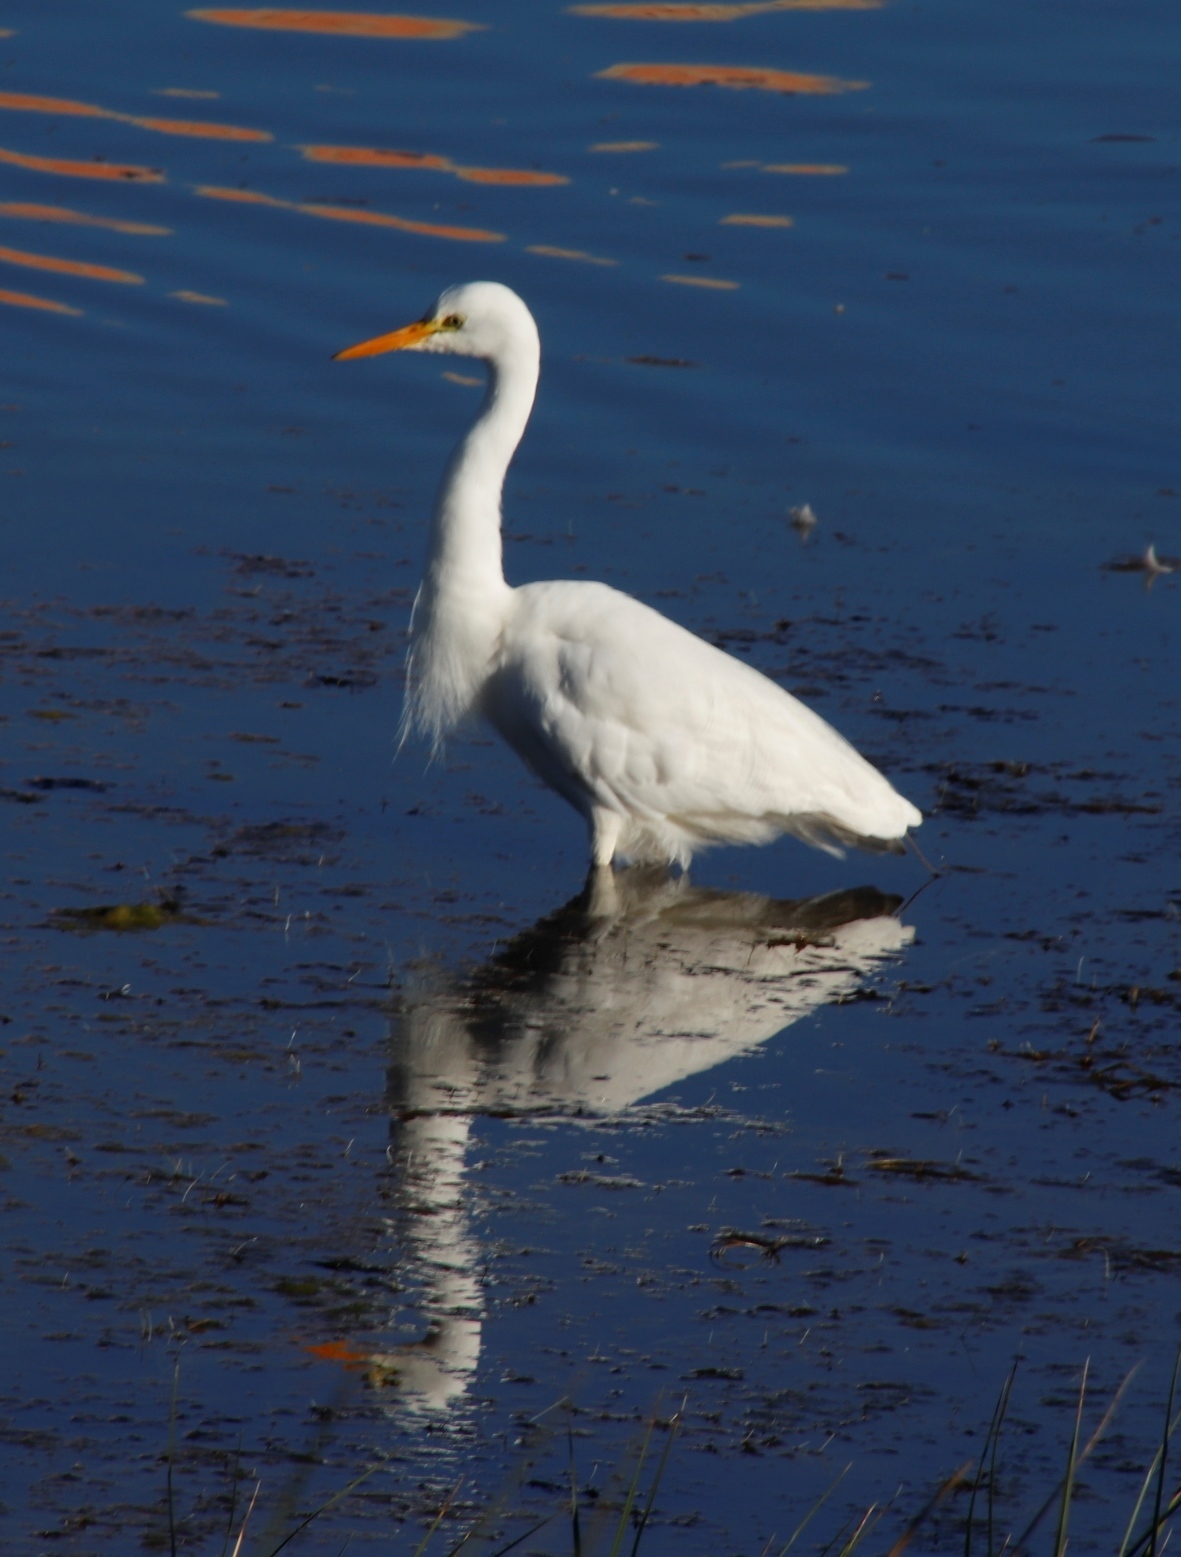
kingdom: Animalia
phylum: Chordata
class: Aves
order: Pelecaniformes
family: Ardeidae
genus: Egretta
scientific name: Egretta intermedia
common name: Intermediate egret
